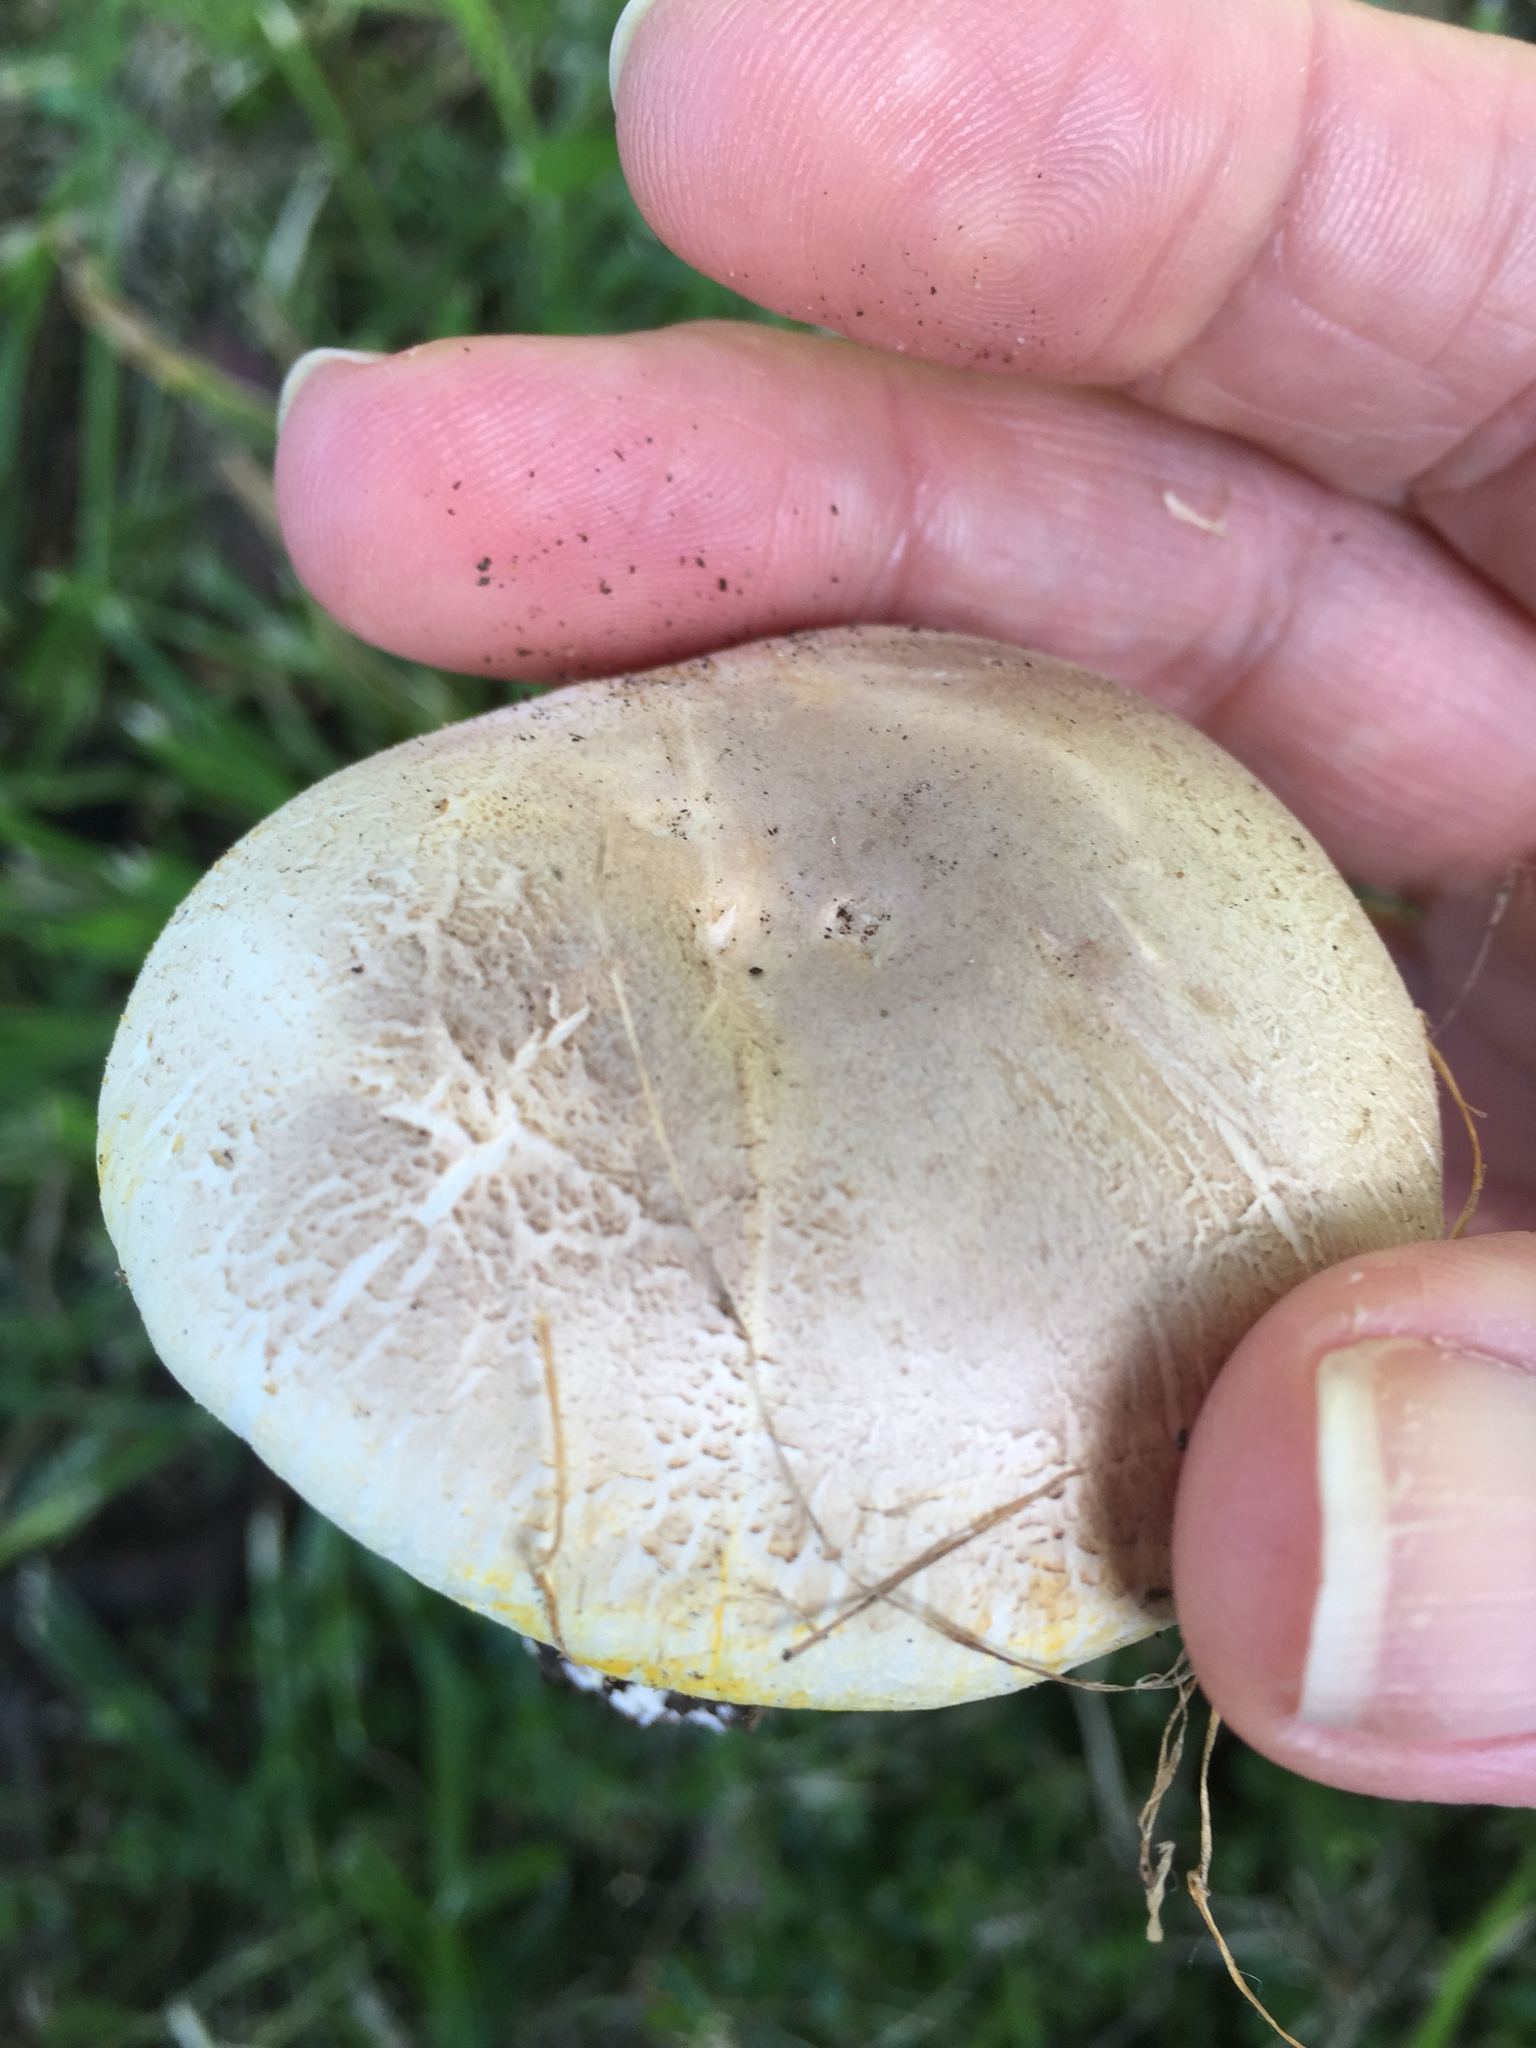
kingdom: Fungi
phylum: Basidiomycota
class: Agaricomycetes
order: Agaricales
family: Agaricaceae
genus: Agaricus
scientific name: Agaricus xanthodermus
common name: Yellow stainer
